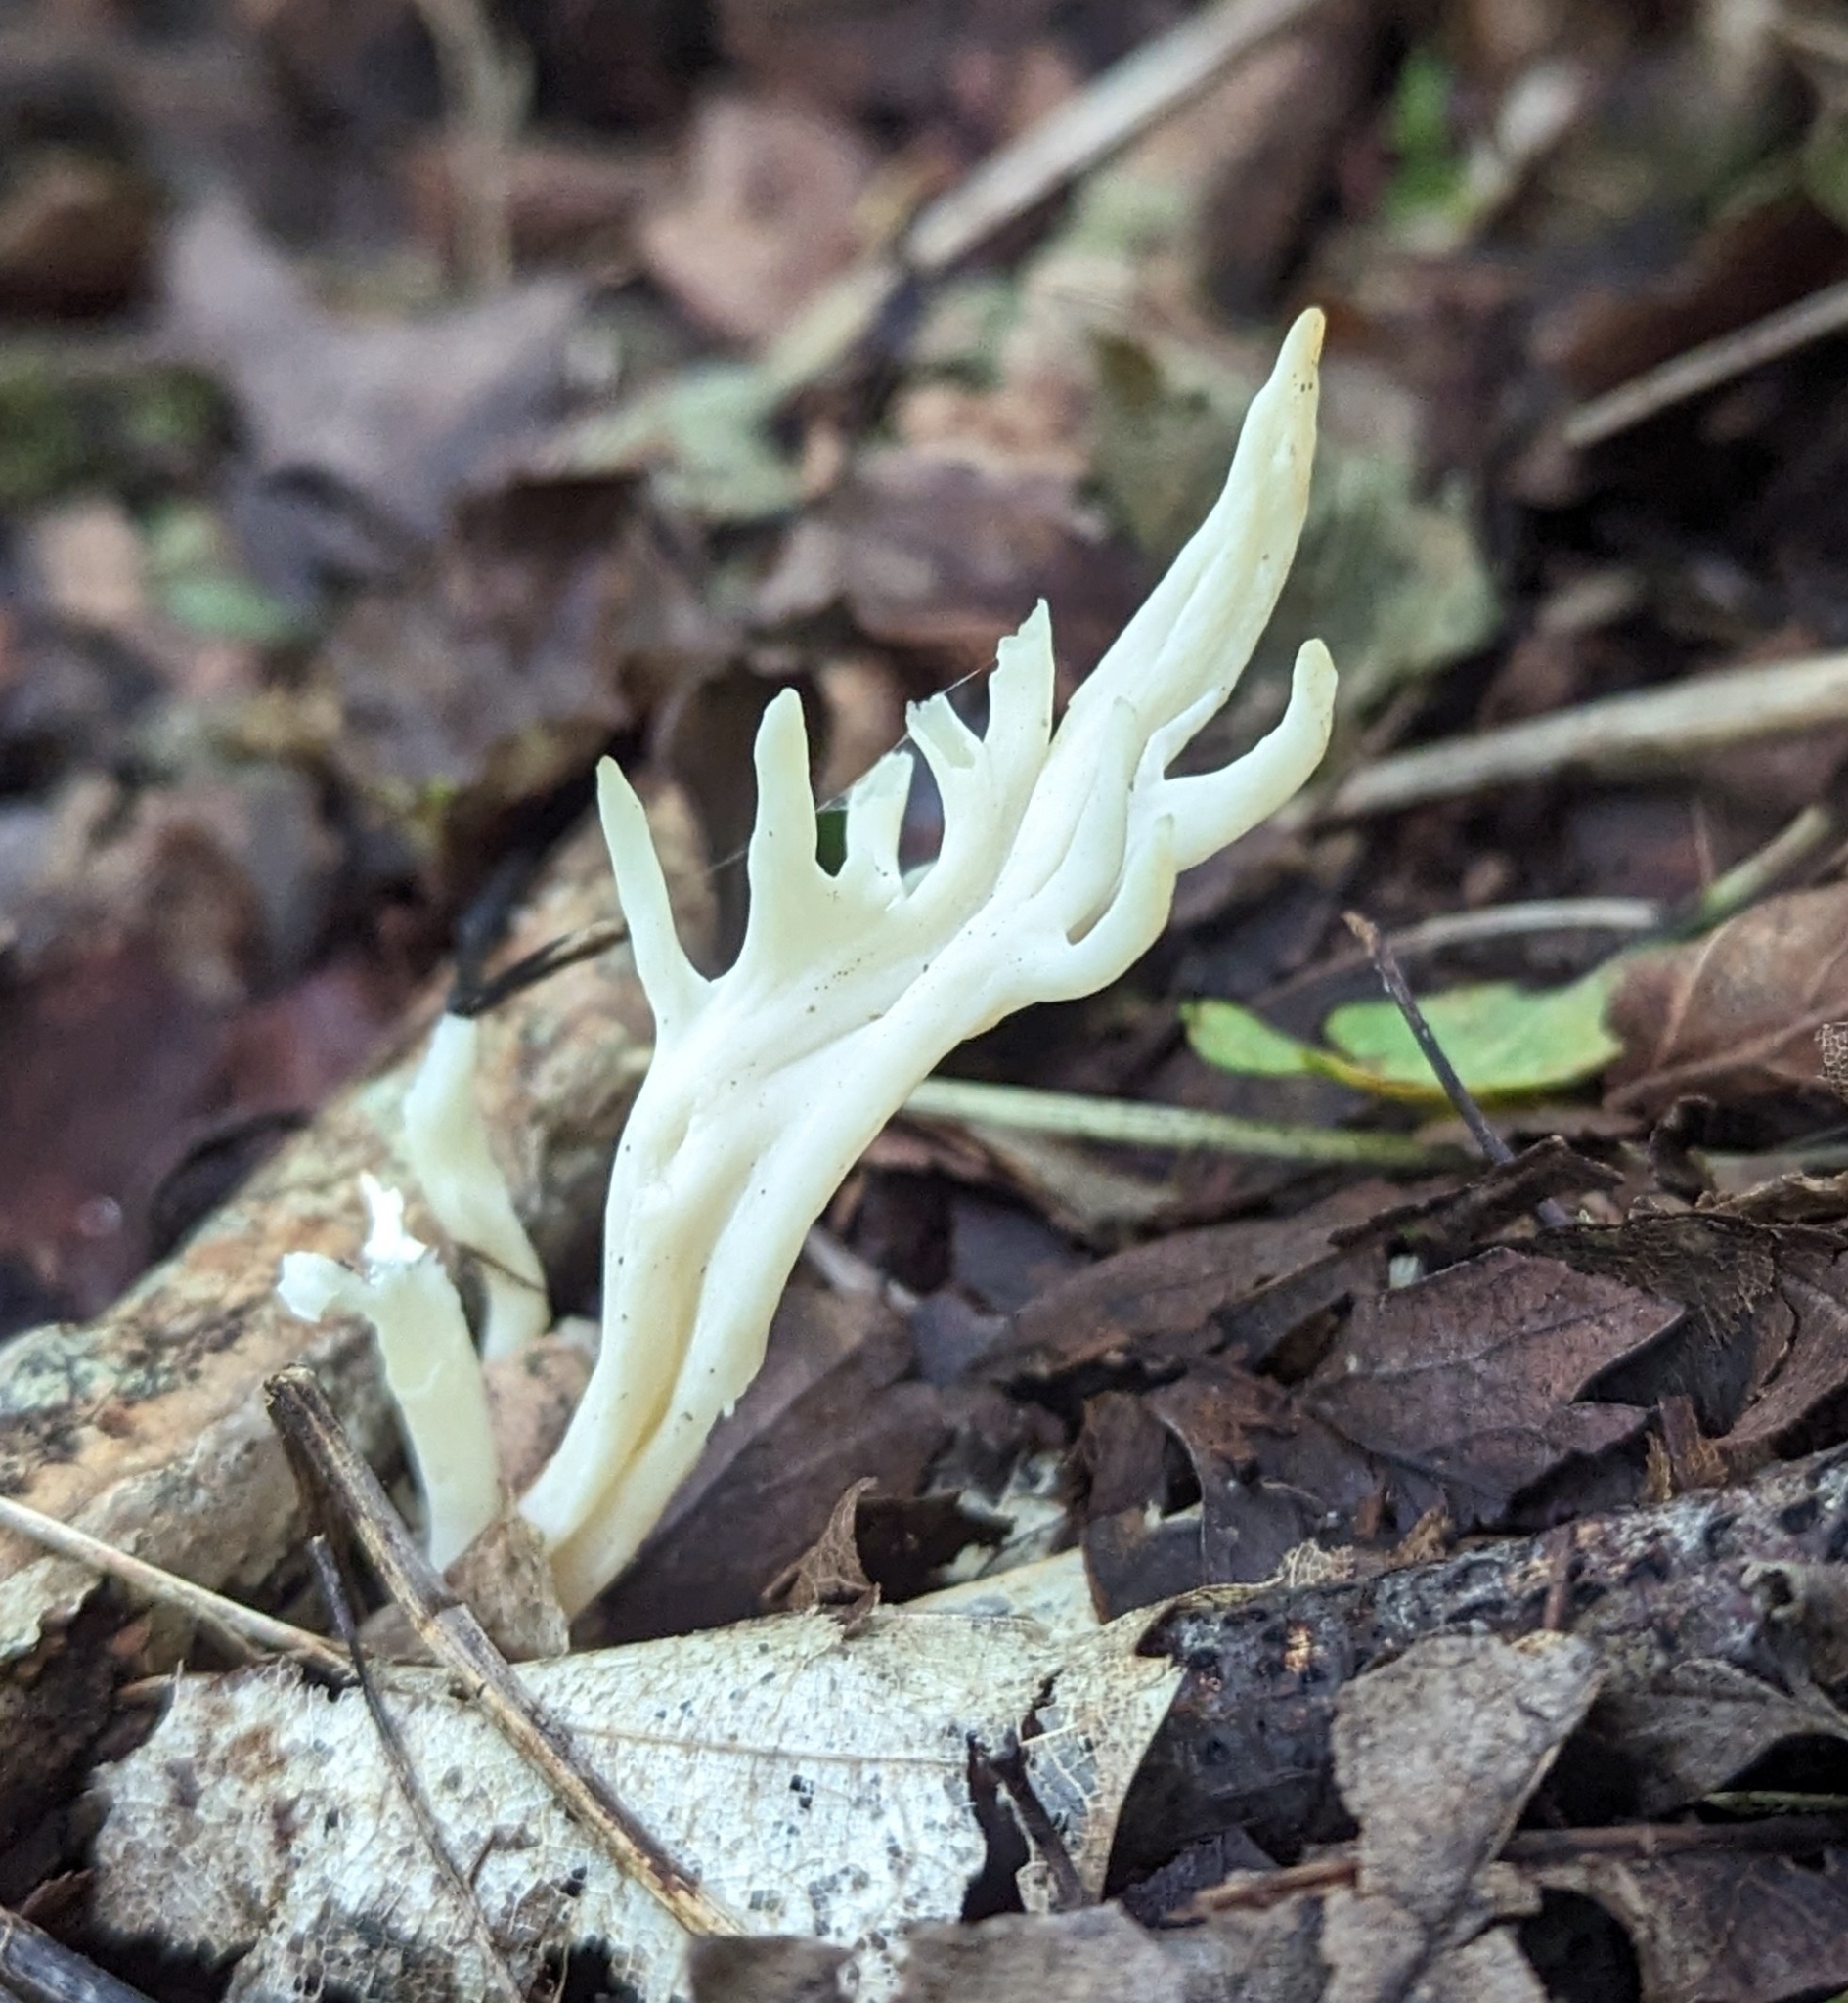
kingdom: Fungi
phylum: Basidiomycota
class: Agaricomycetes
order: Cantharellales
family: Hydnaceae
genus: Clavulina
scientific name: Clavulina rugosa
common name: Wrinkled club
